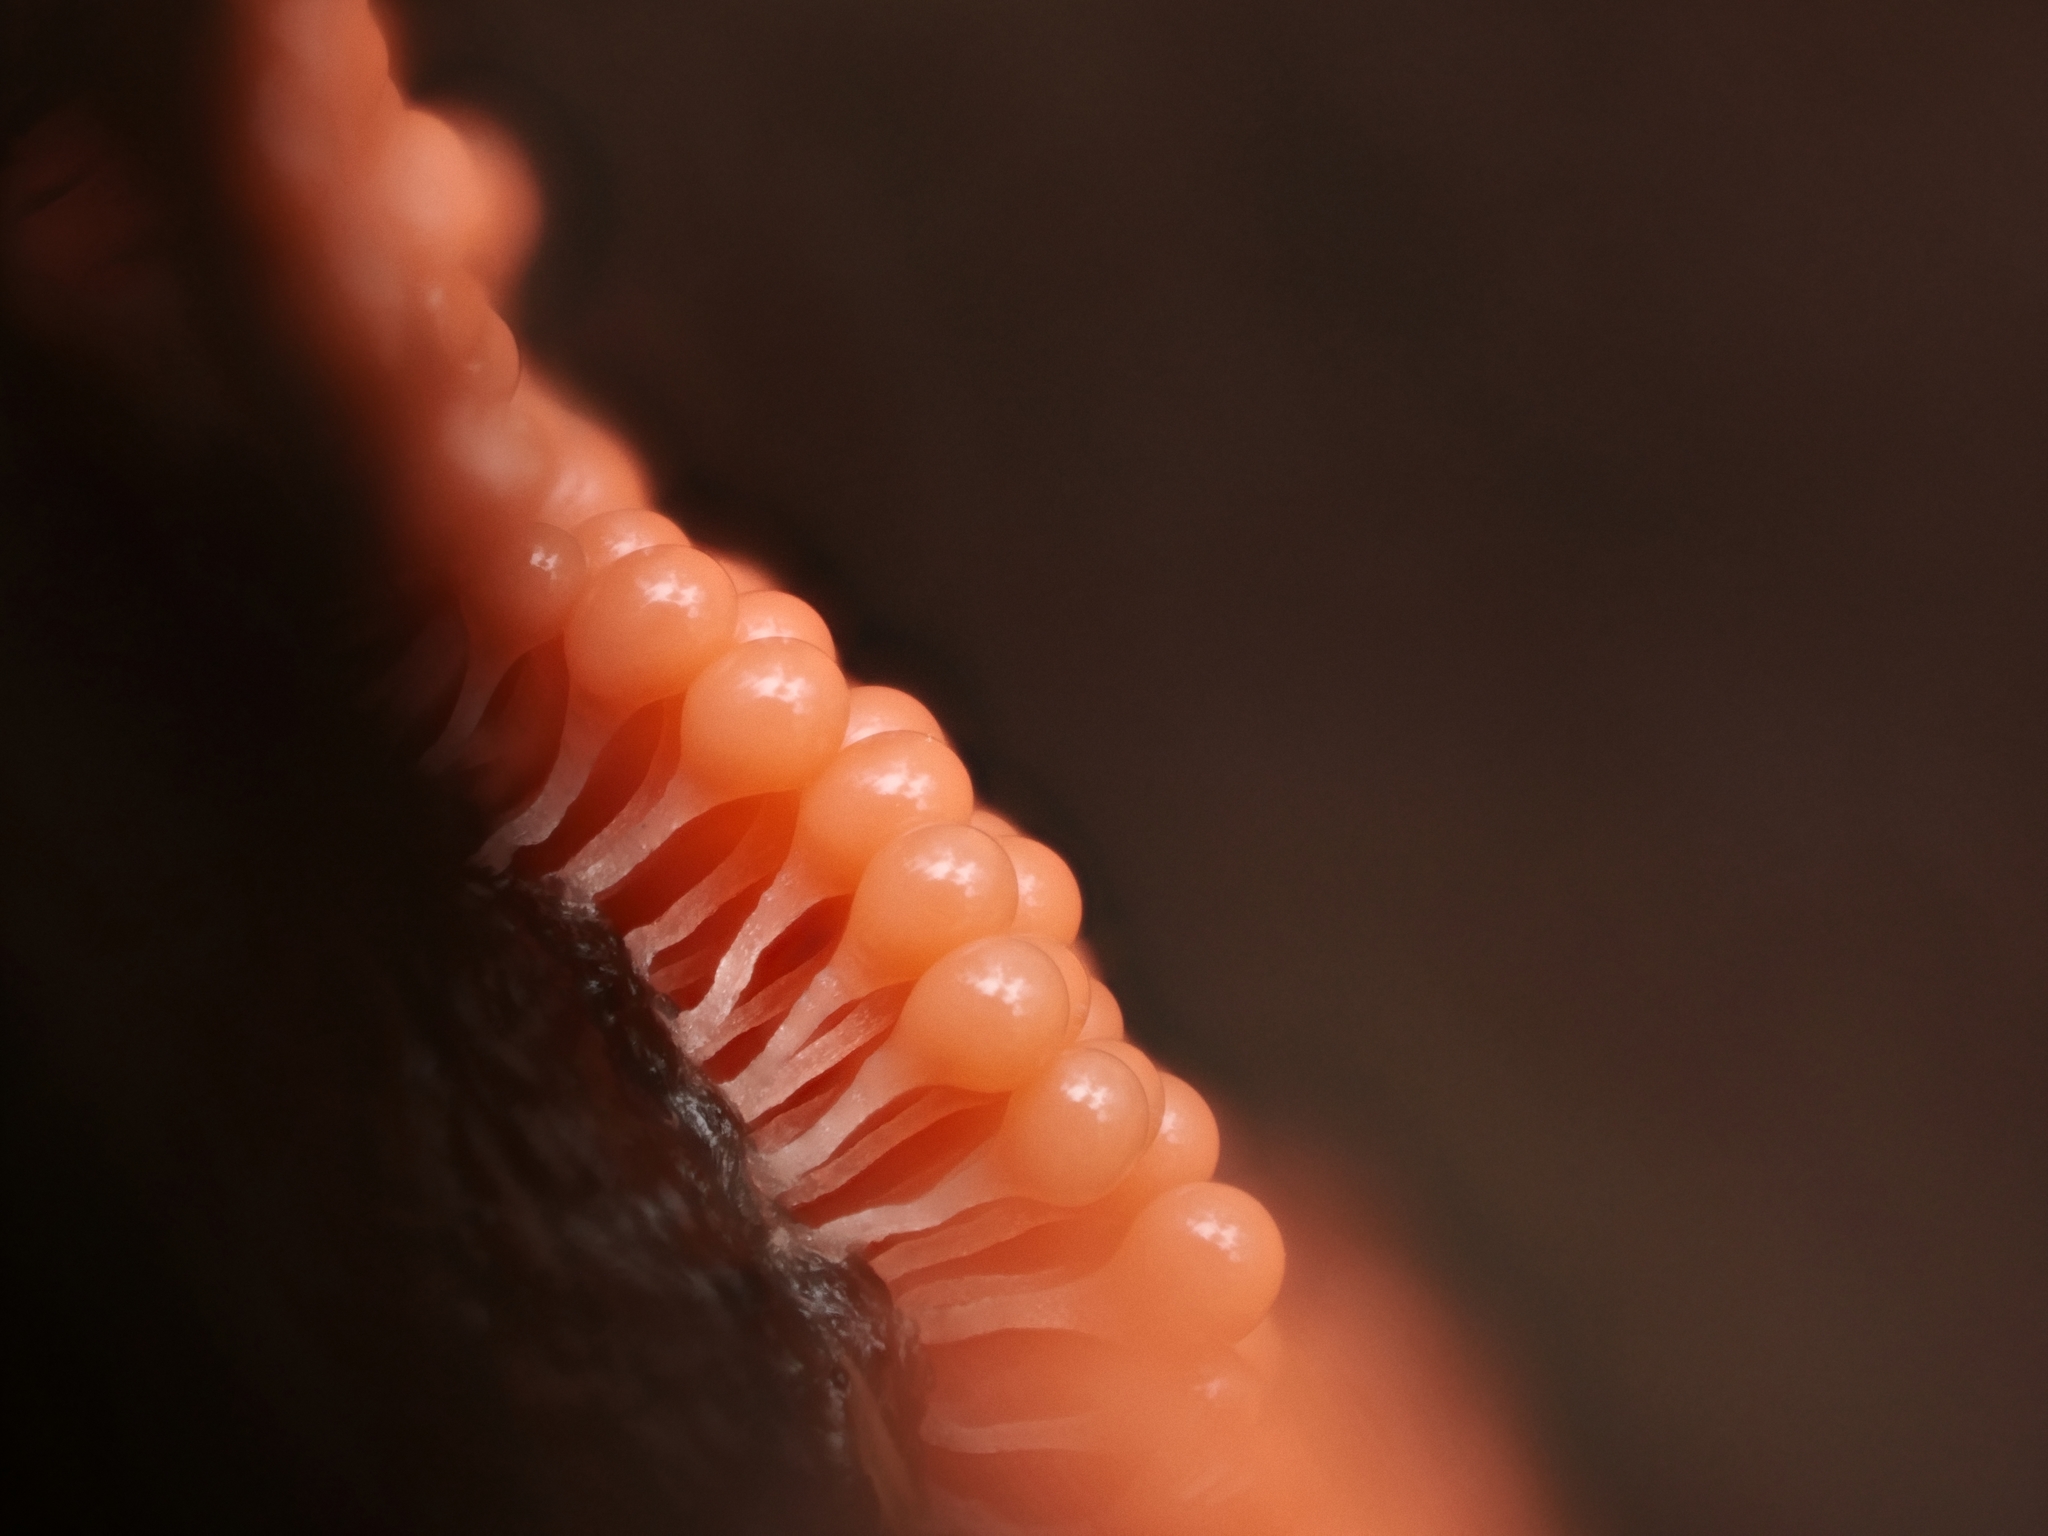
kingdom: Protozoa
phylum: Mycetozoa
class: Myxomycetes
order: Trichiales
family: Arcyriaceae
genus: Hemitrichia
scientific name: Hemitrichia decipiens
